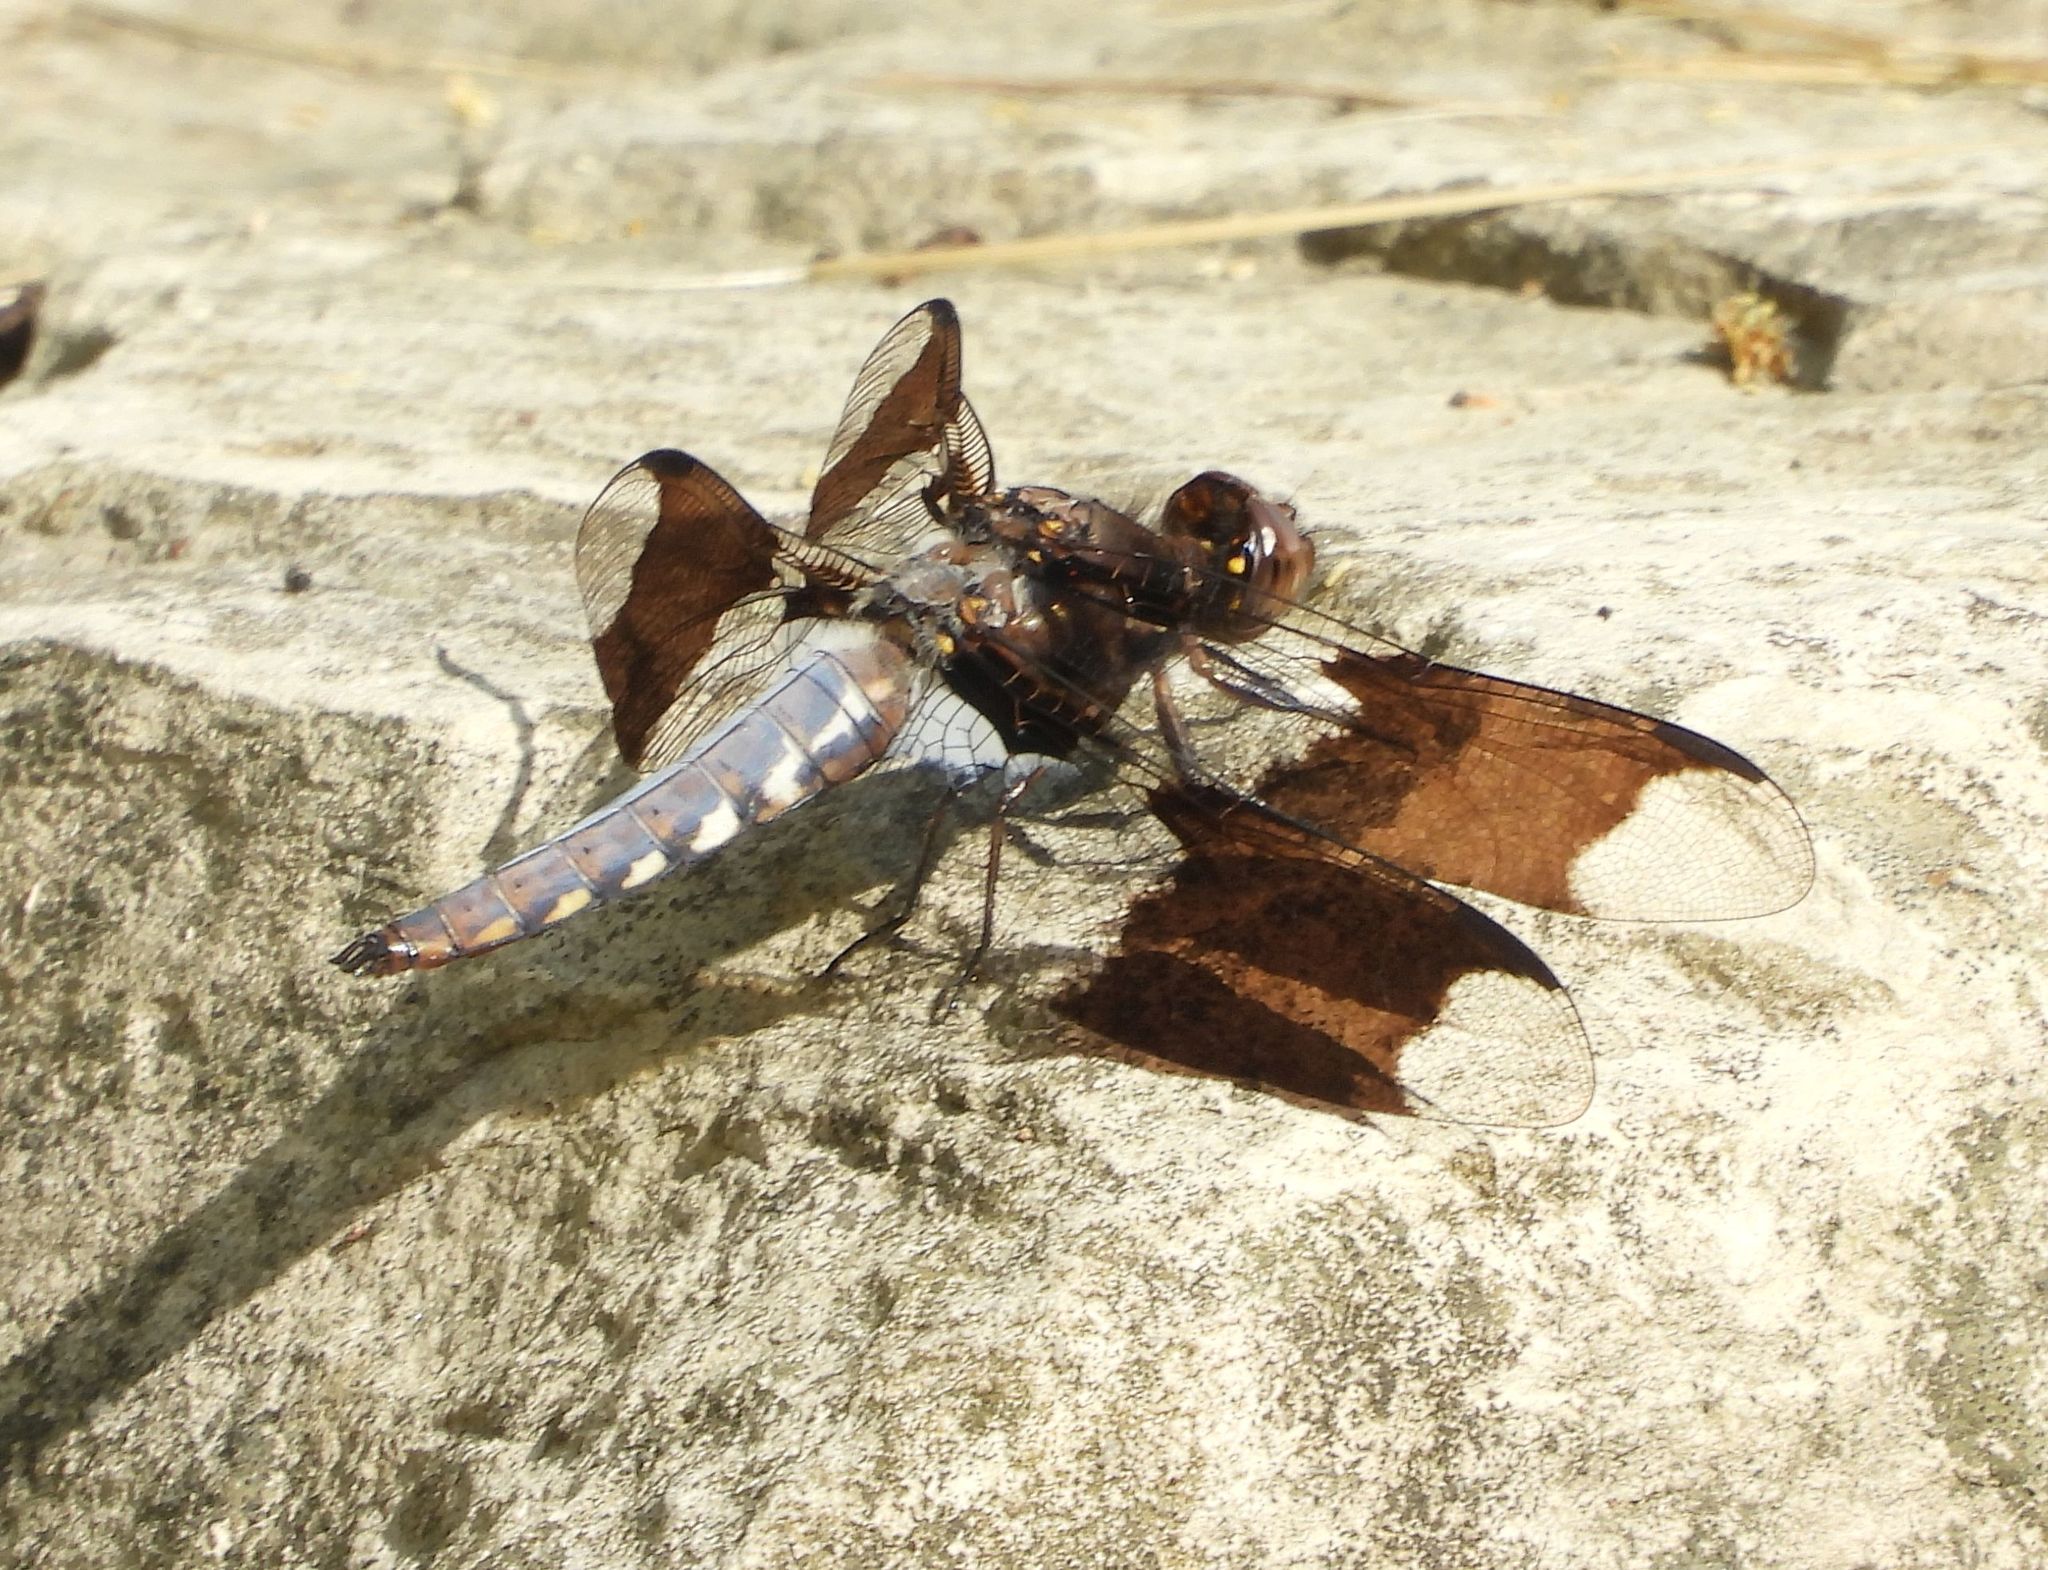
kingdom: Animalia
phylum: Arthropoda
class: Insecta
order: Odonata
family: Libellulidae
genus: Plathemis
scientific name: Plathemis lydia
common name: Common whitetail
